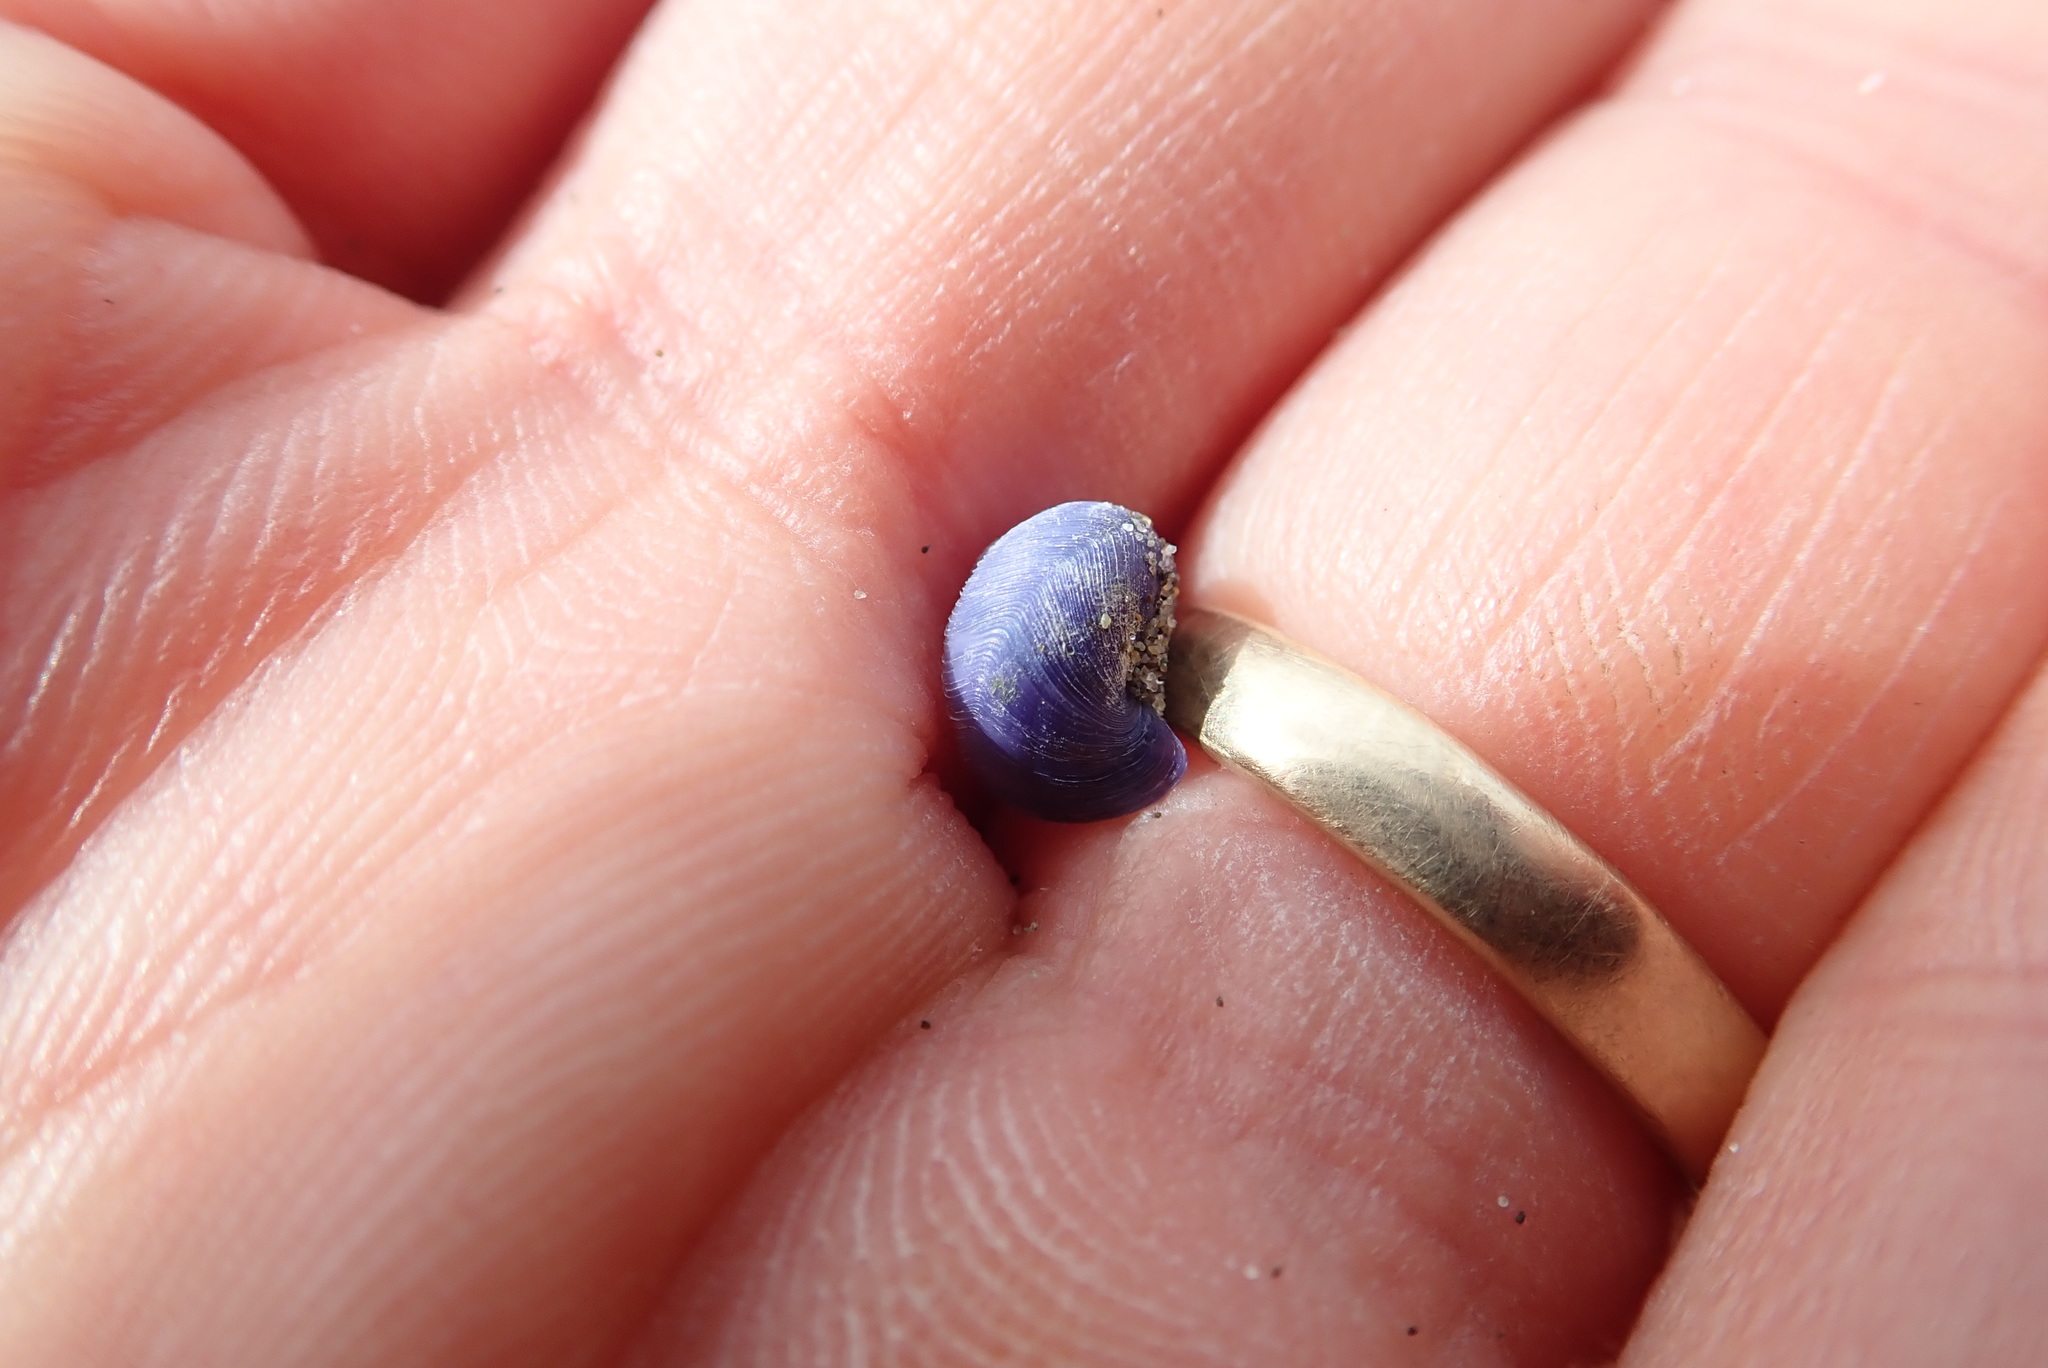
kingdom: Animalia
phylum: Mollusca
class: Gastropoda
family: Epitoniidae
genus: Janthina
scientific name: Janthina exigua
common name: Dwarf janthina
